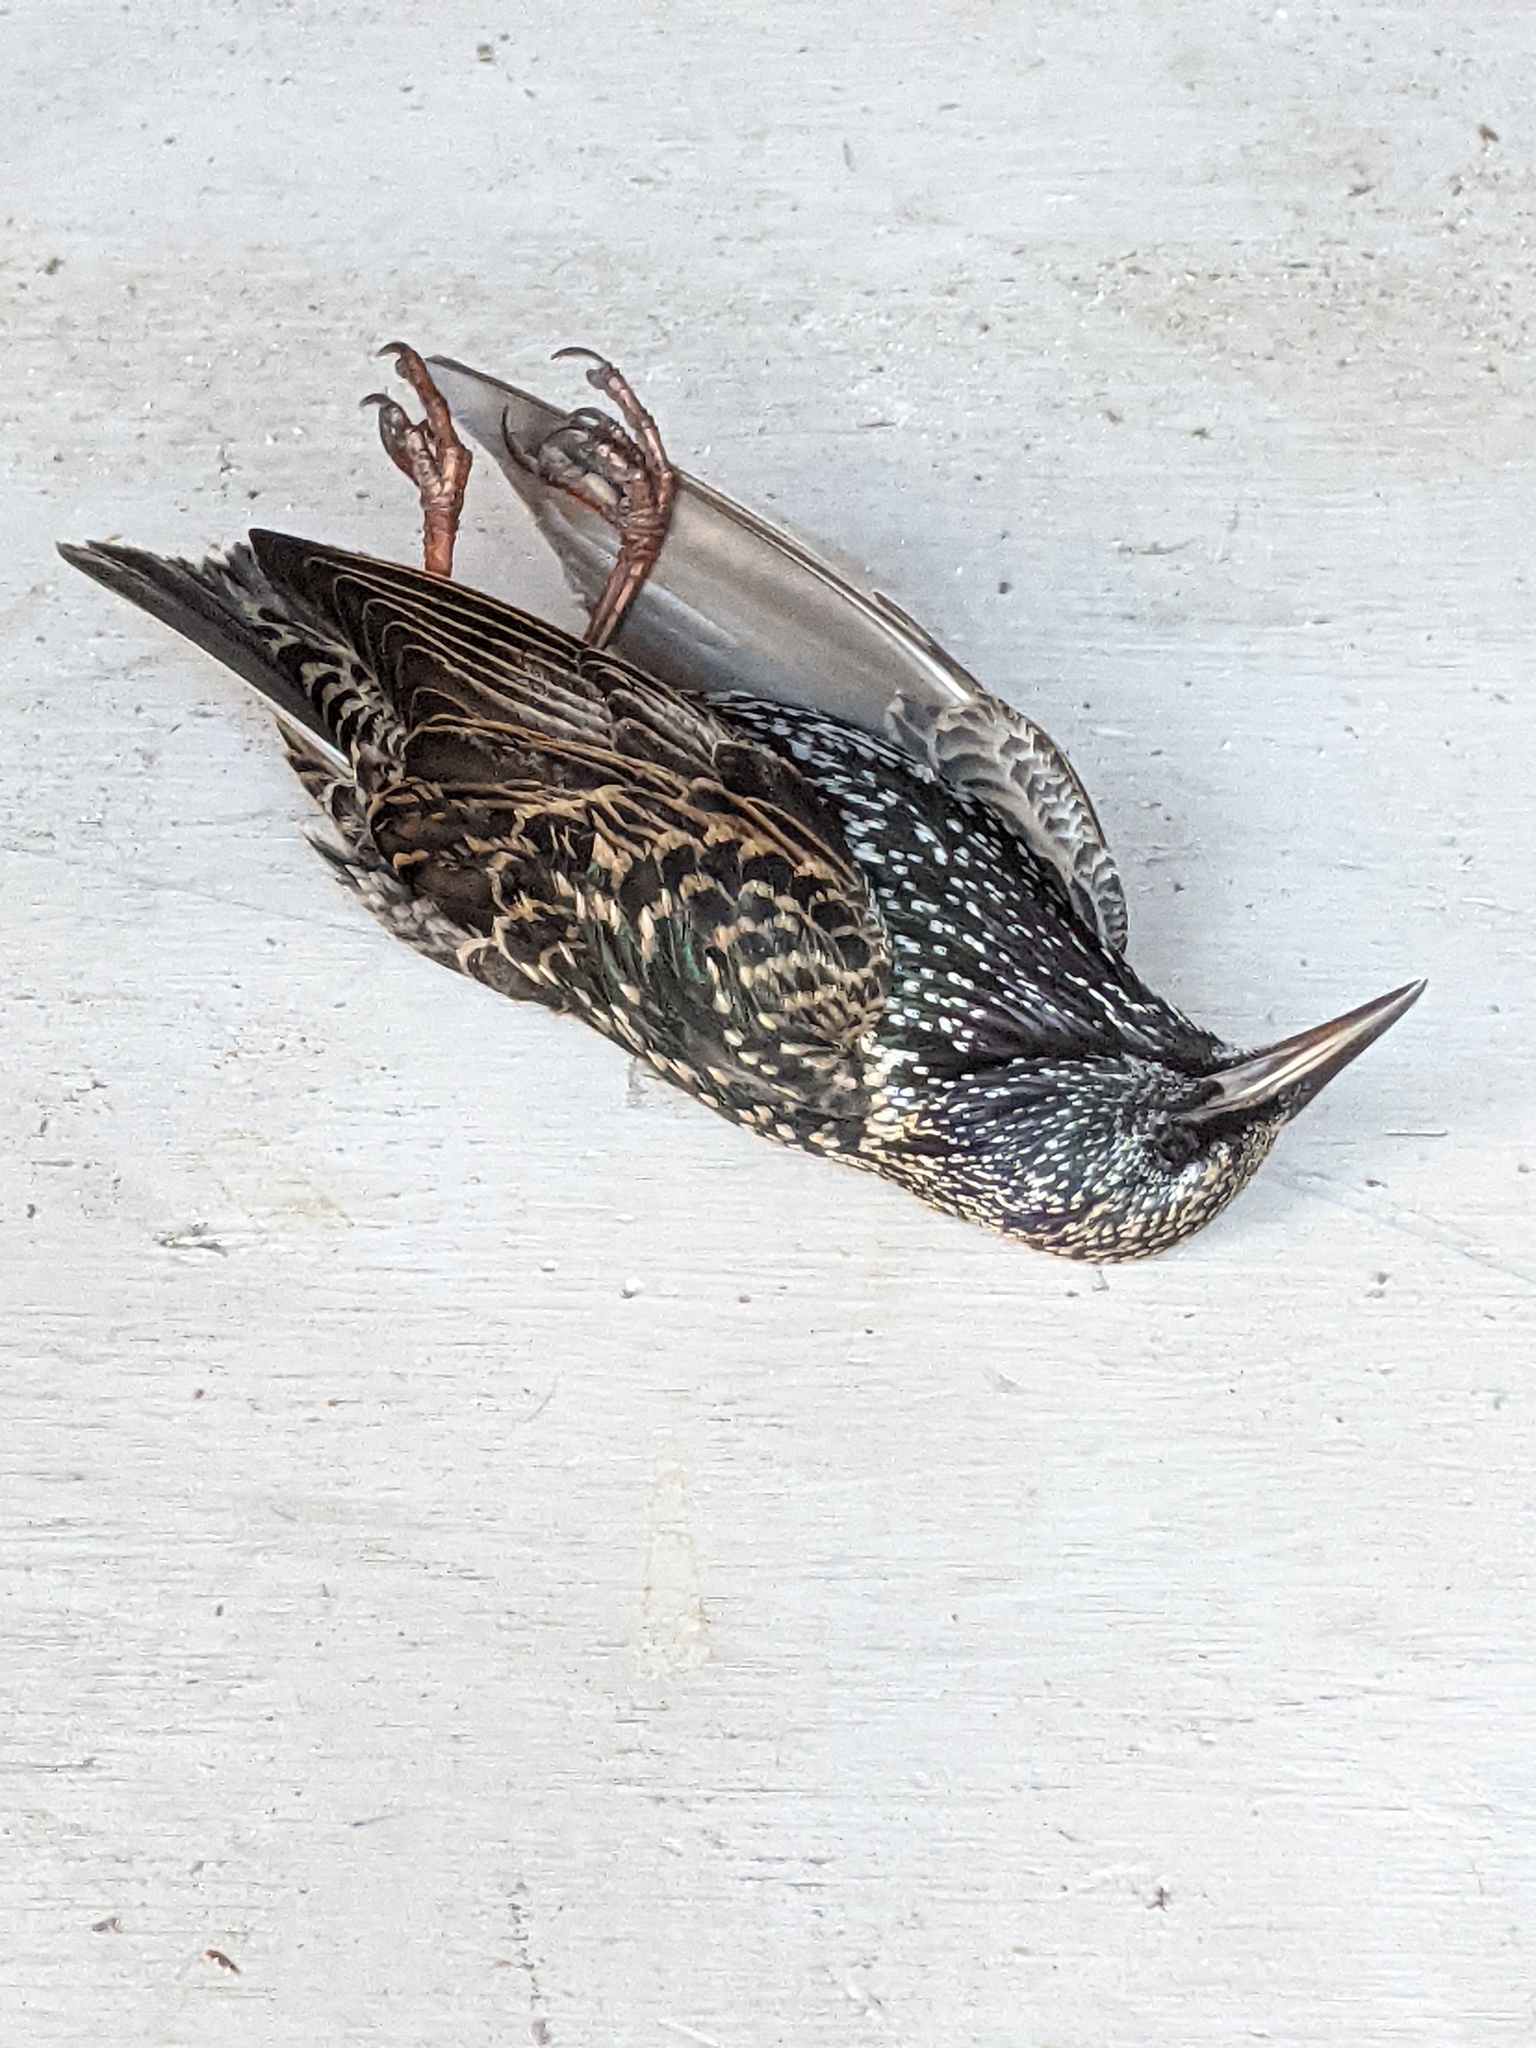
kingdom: Animalia
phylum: Chordata
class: Aves
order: Passeriformes
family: Sturnidae
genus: Sturnus
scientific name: Sturnus vulgaris
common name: Common starling
